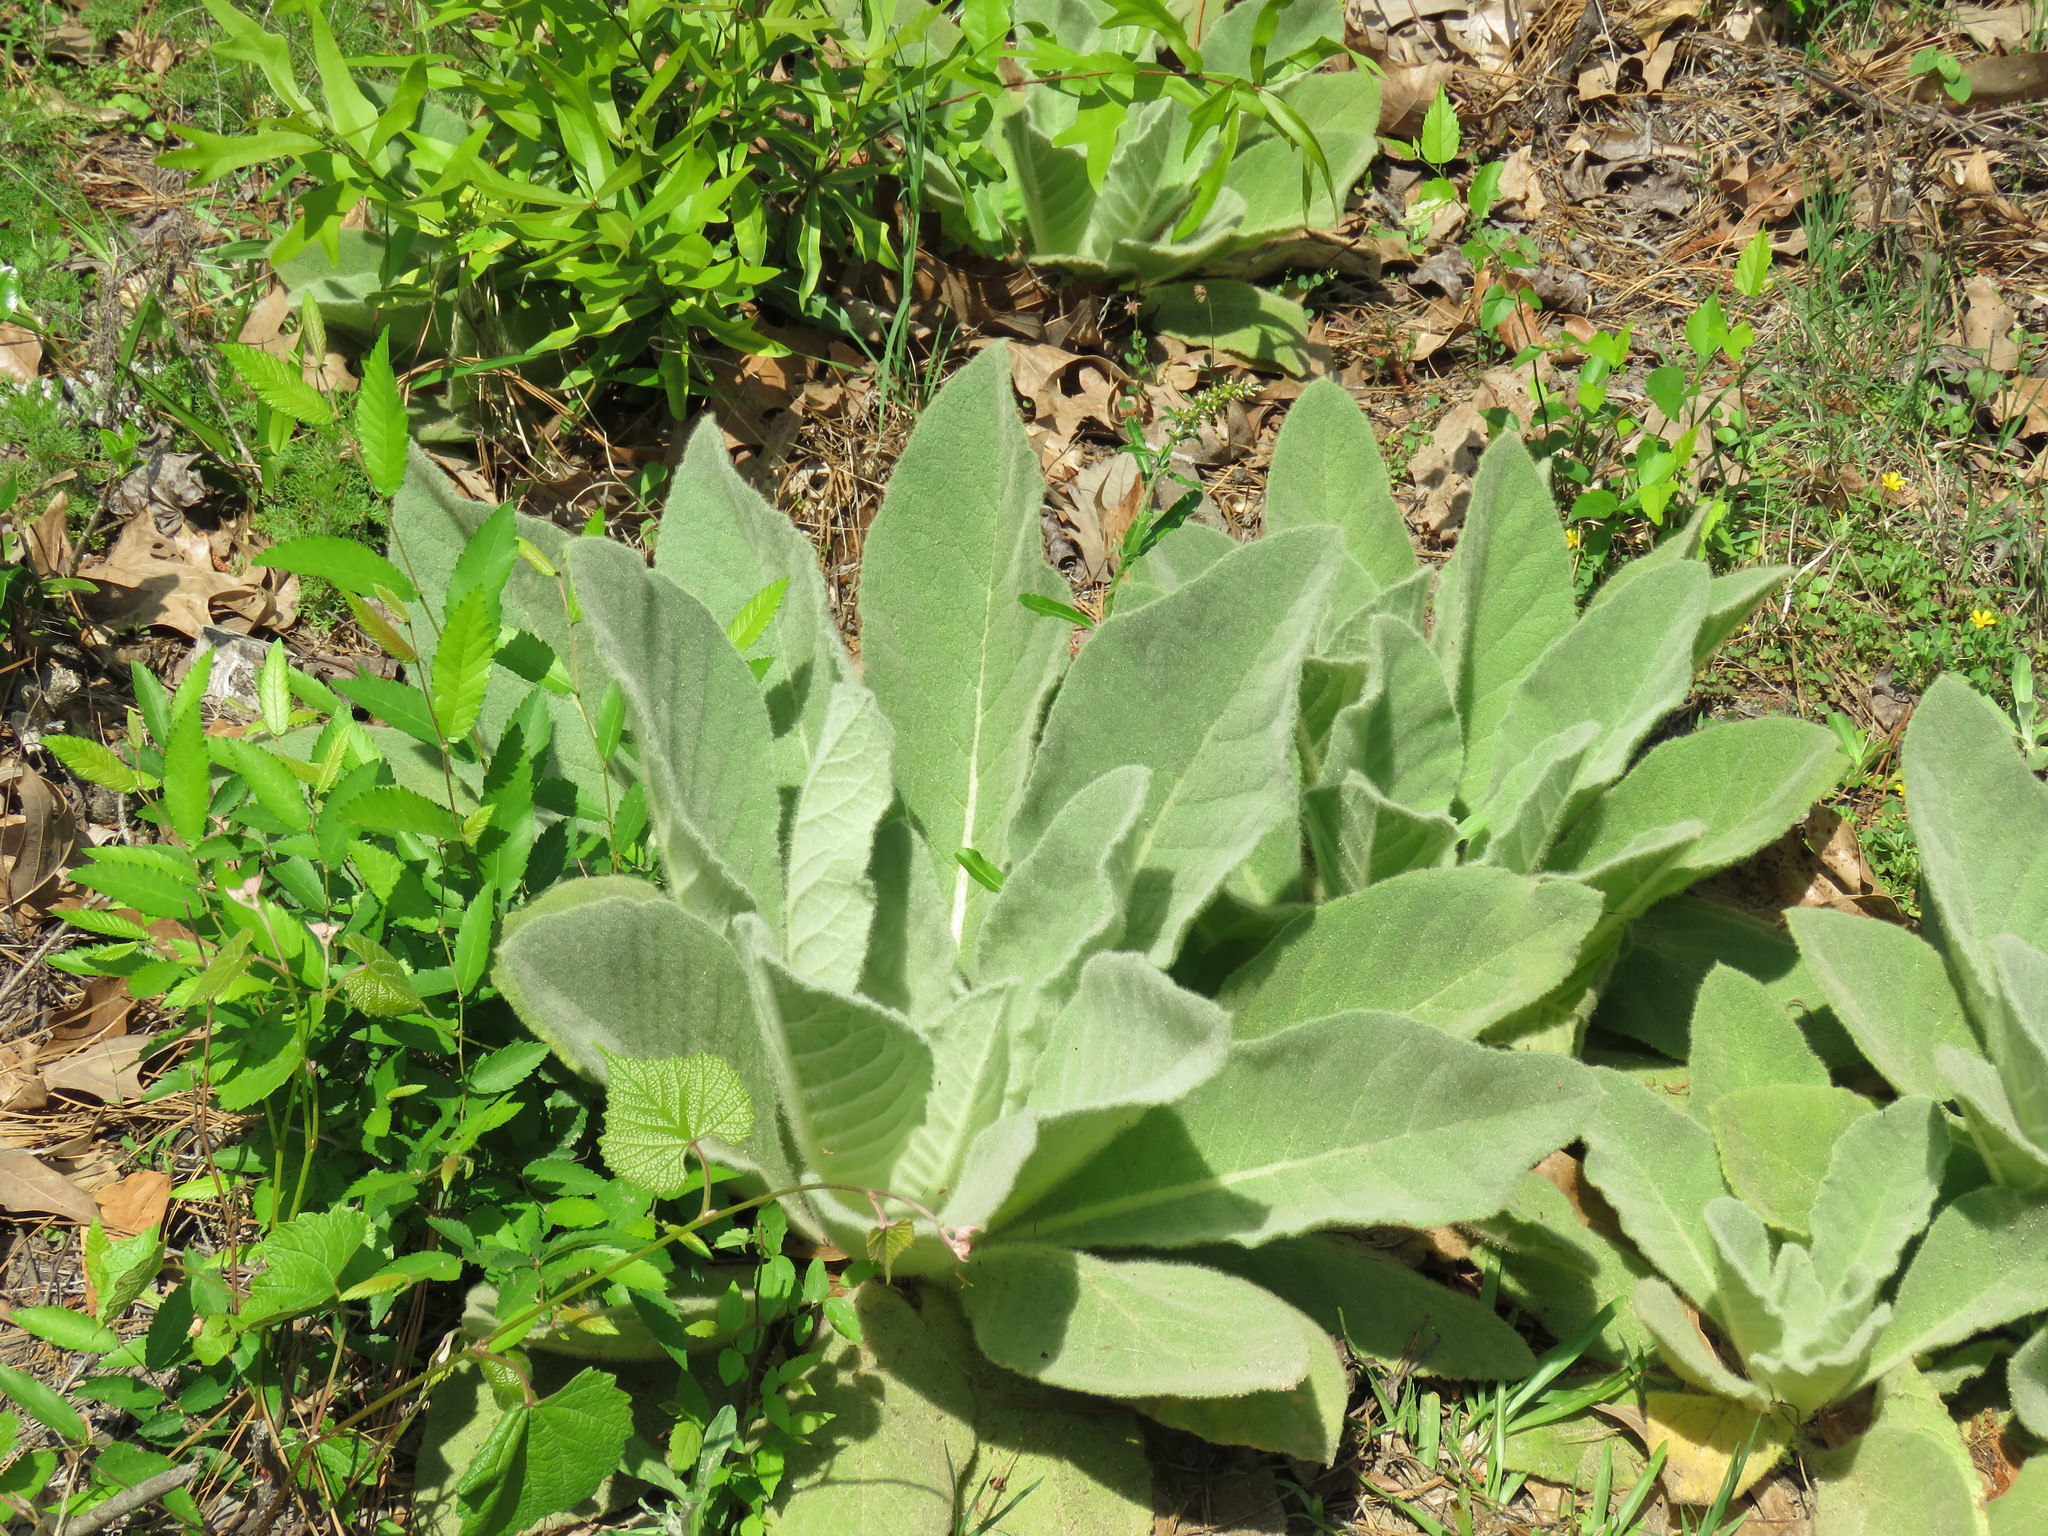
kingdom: Plantae
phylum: Tracheophyta
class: Magnoliopsida
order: Lamiales
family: Scrophulariaceae
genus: Verbascum
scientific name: Verbascum thapsus
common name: Common mullein
